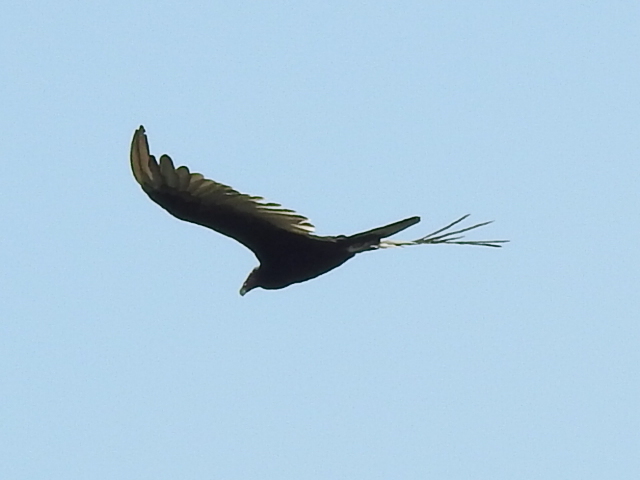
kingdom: Animalia
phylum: Chordata
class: Aves
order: Accipitriformes
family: Cathartidae
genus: Cathartes
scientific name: Cathartes aura
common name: Turkey vulture
